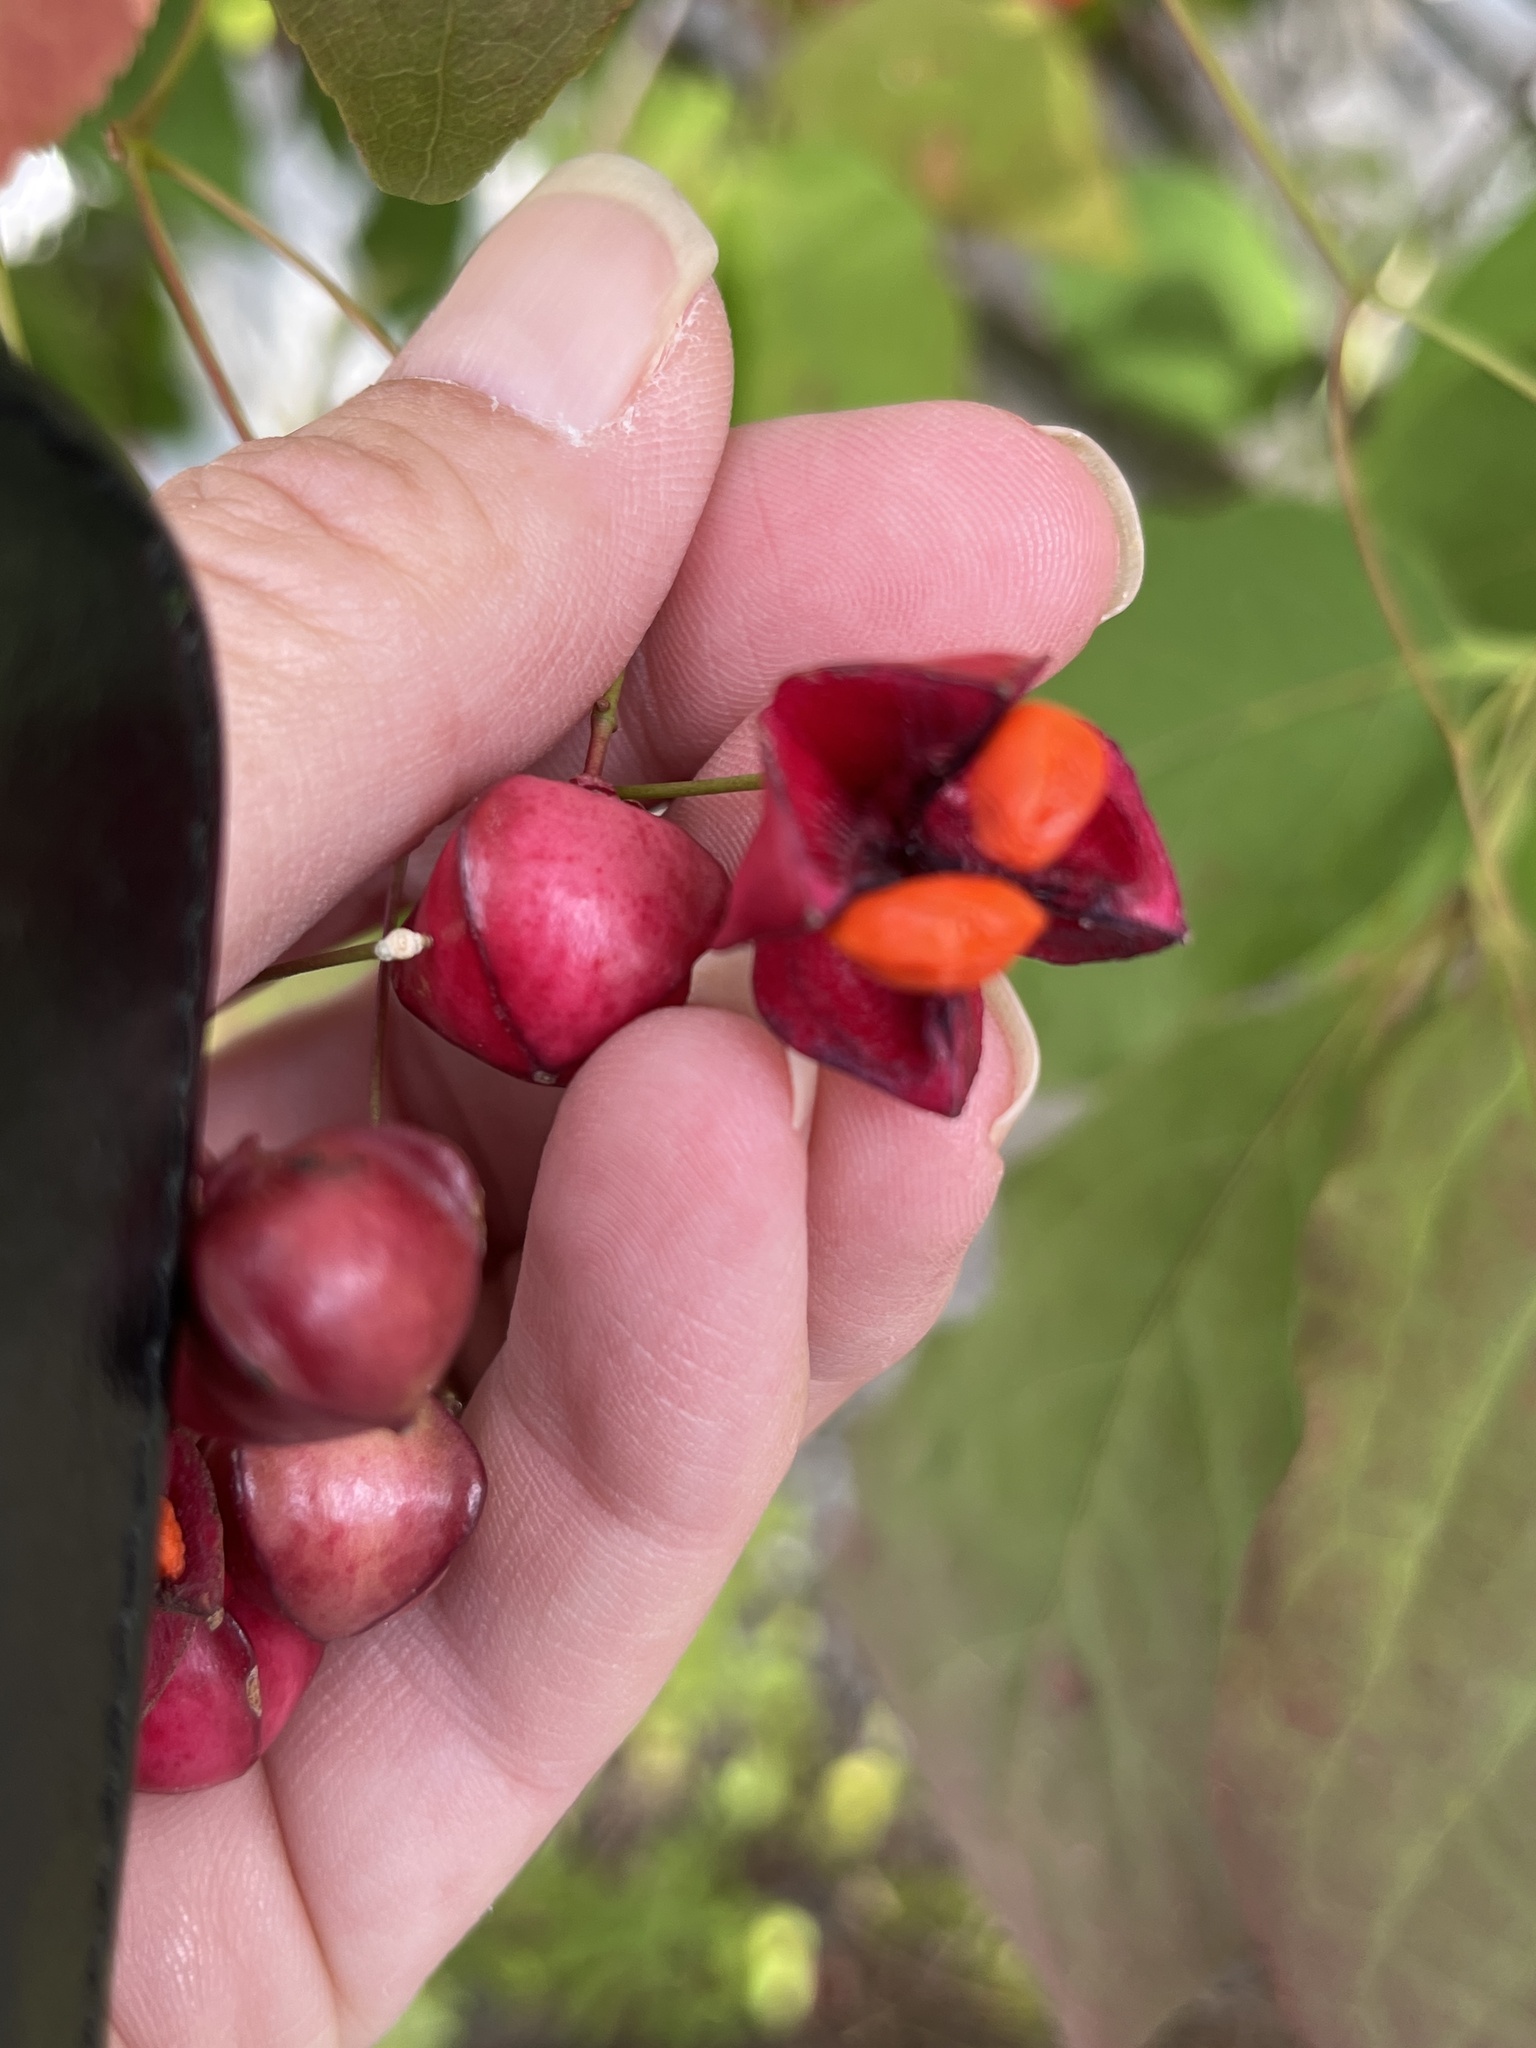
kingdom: Plantae
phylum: Tracheophyta
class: Magnoliopsida
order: Celastrales
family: Celastraceae
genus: Euonymus
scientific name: Euonymus europaeus
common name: Spindle
